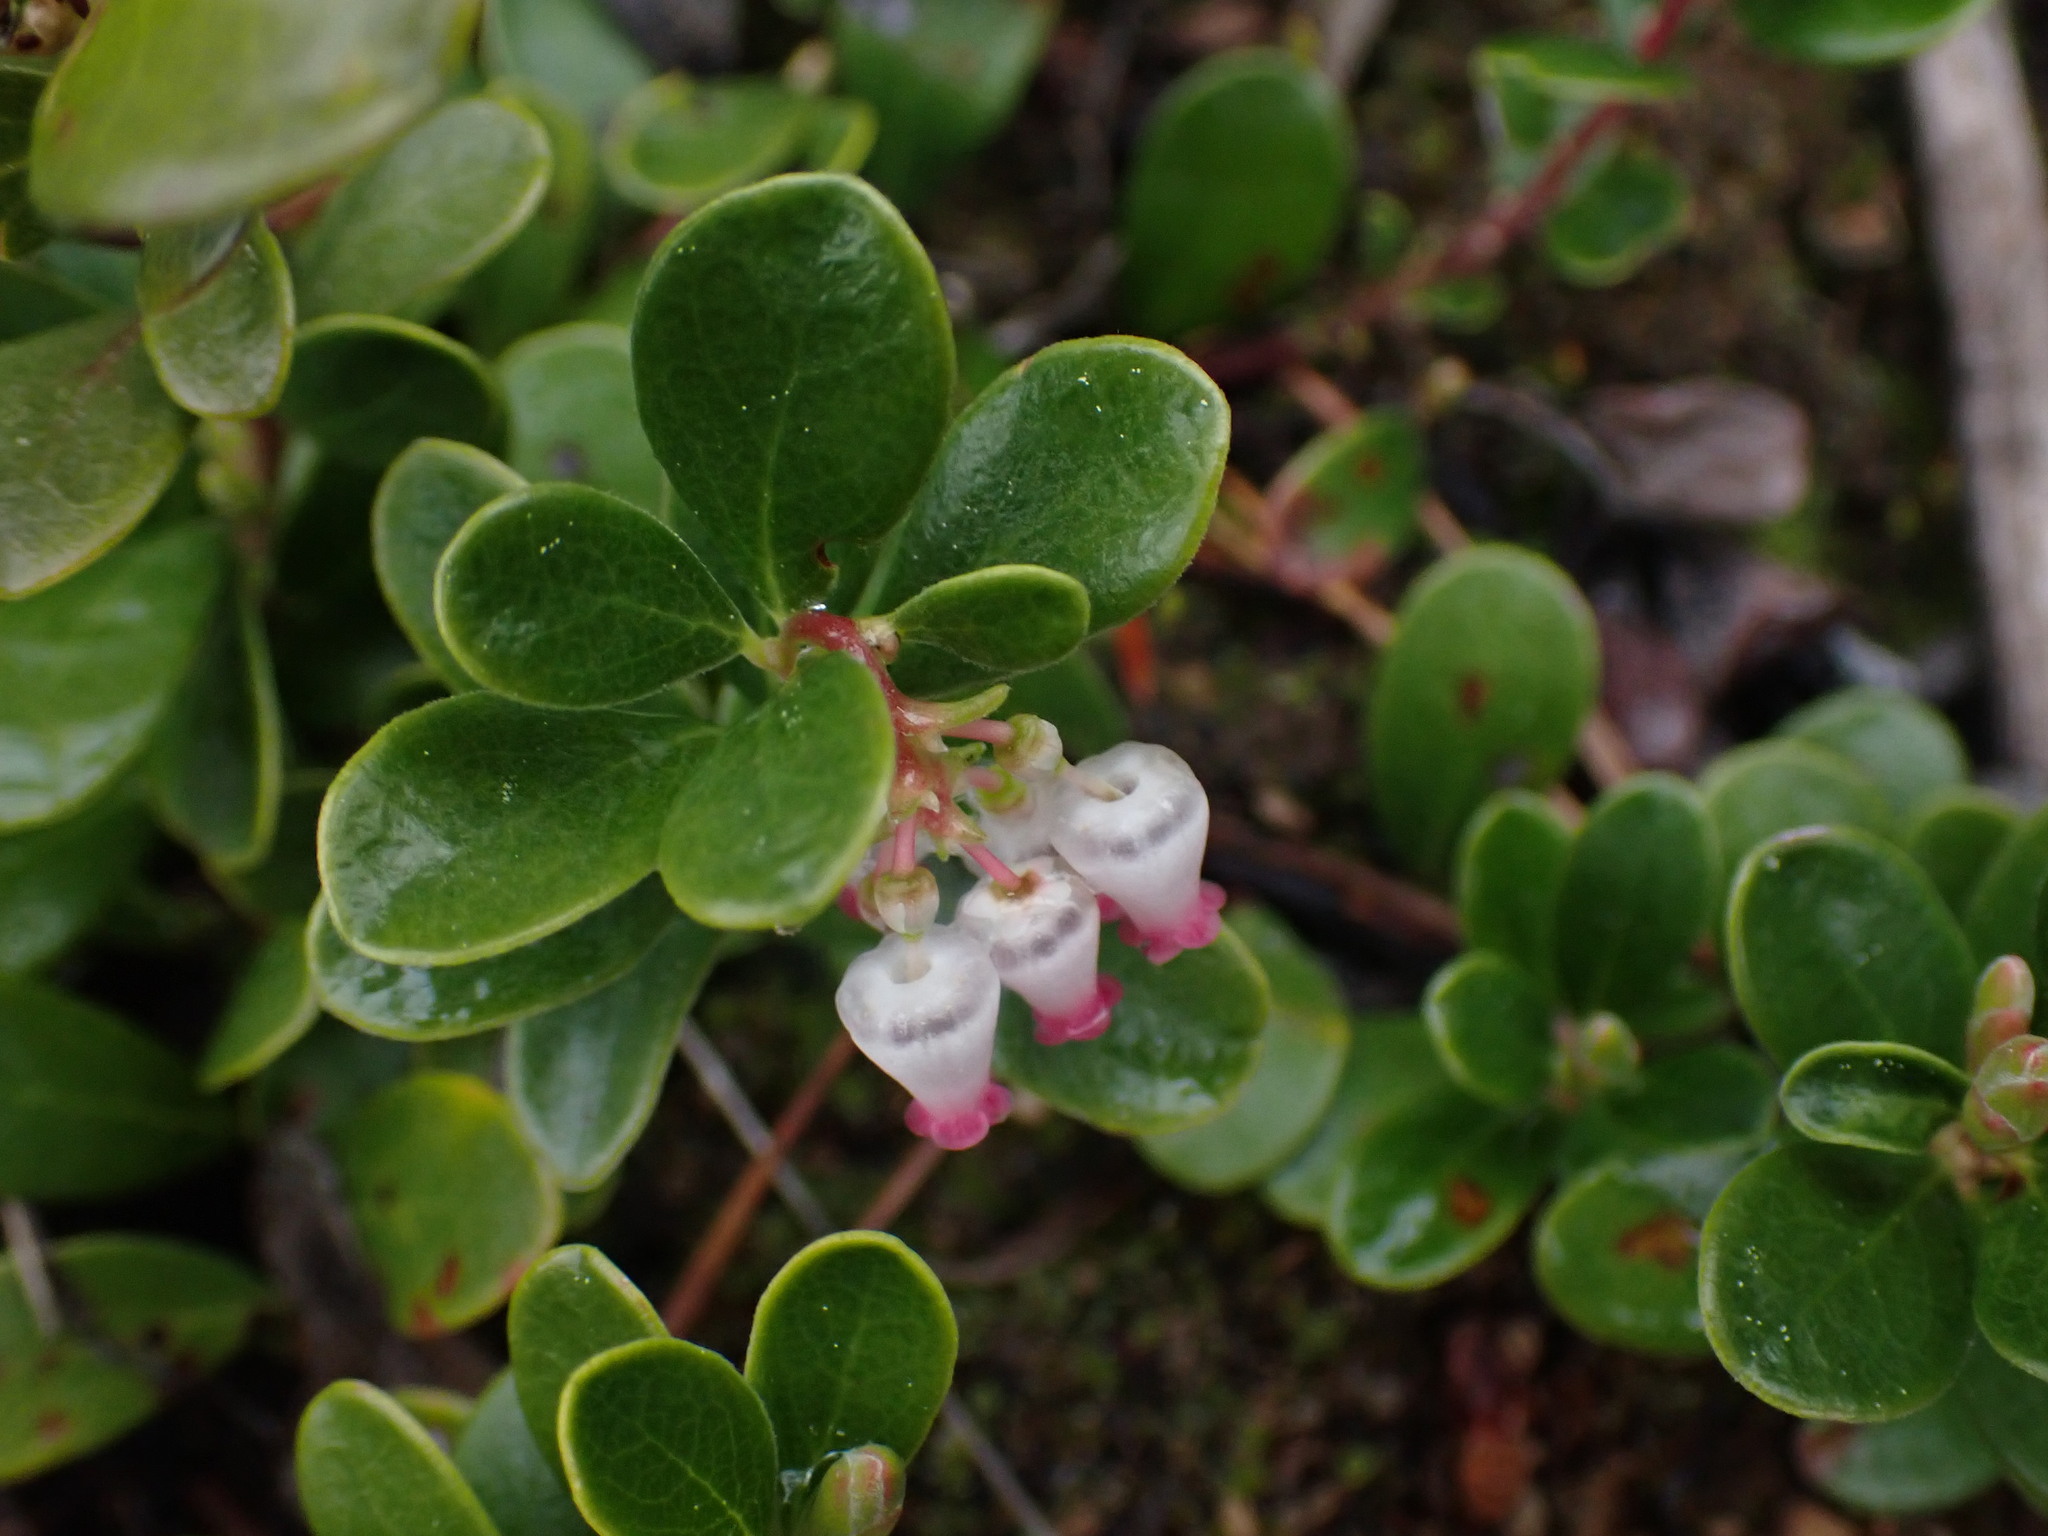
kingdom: Plantae
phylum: Tracheophyta
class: Magnoliopsida
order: Ericales
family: Ericaceae
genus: Arctostaphylos
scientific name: Arctostaphylos uva-ursi
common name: Bearberry
